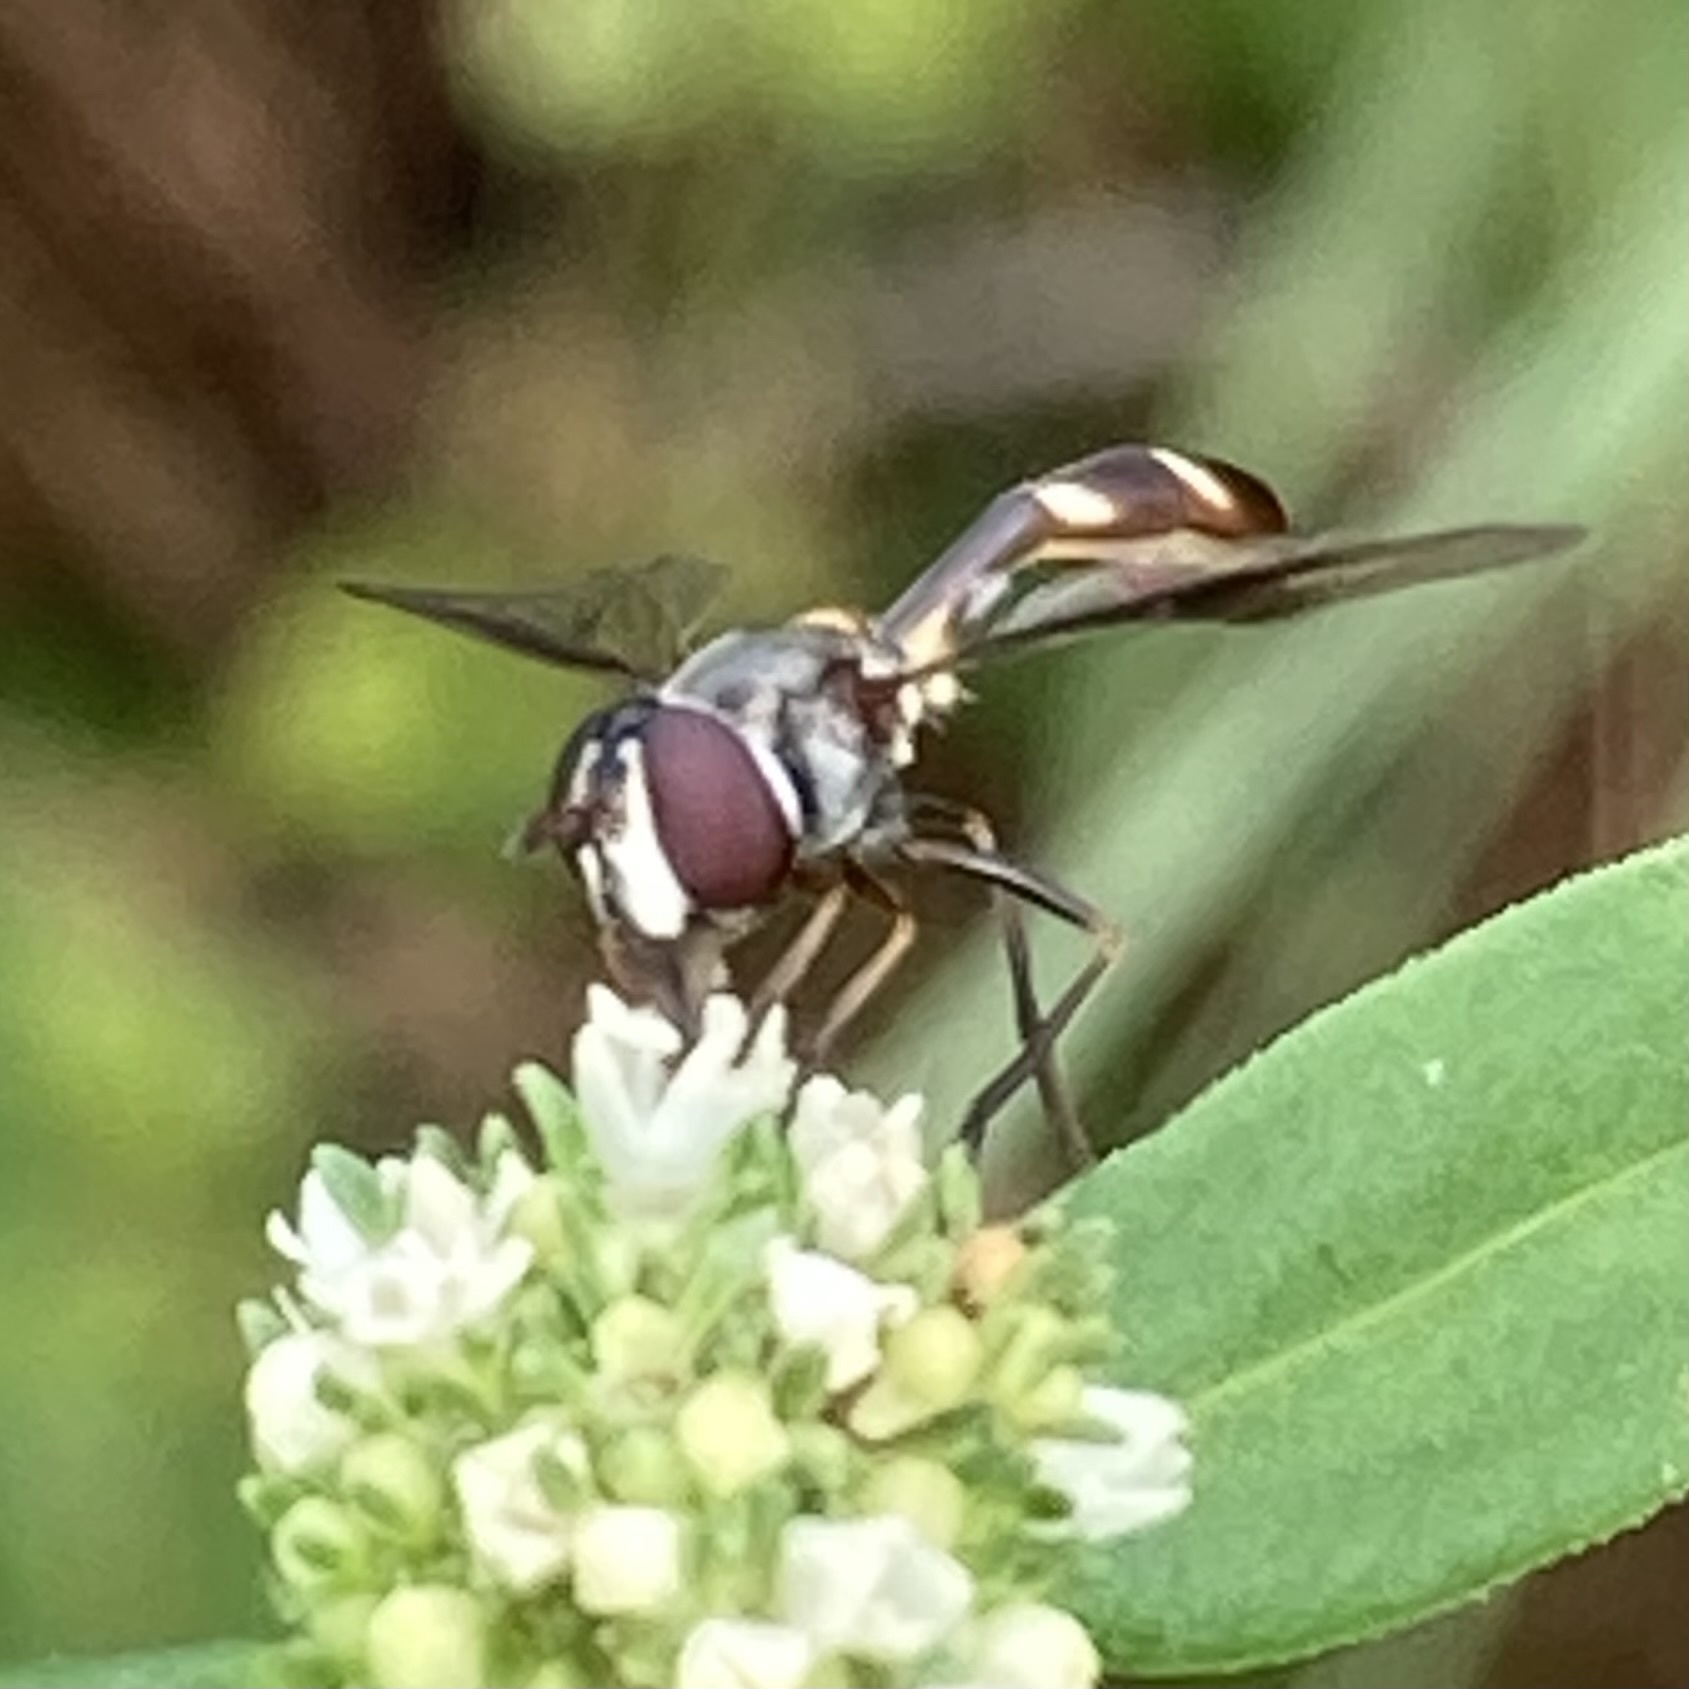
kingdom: Animalia
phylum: Arthropoda
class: Insecta
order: Diptera
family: Syrphidae
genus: Dioprosopa
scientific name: Dioprosopa clavatus
